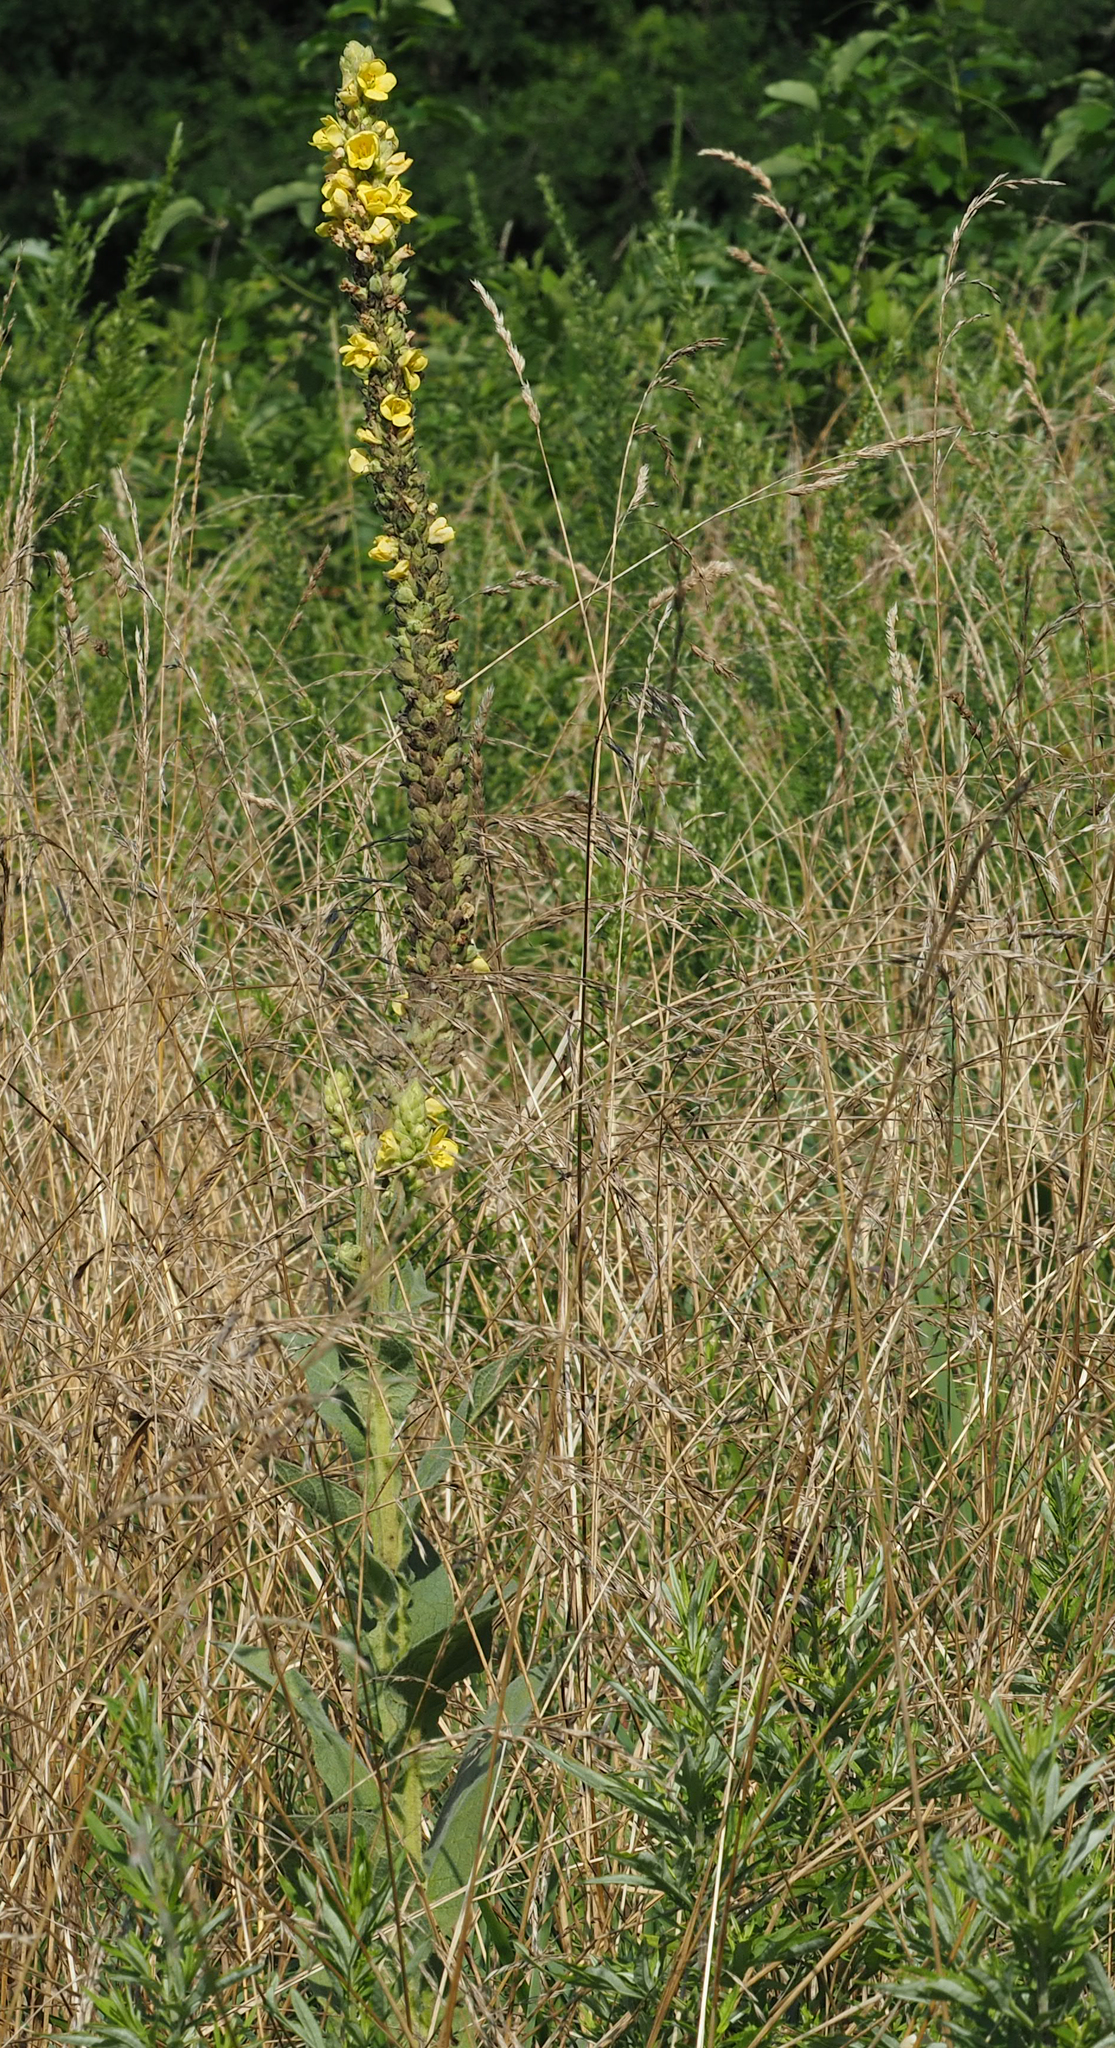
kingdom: Plantae
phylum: Tracheophyta
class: Magnoliopsida
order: Lamiales
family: Scrophulariaceae
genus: Verbascum
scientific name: Verbascum thapsus
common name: Common mullein
